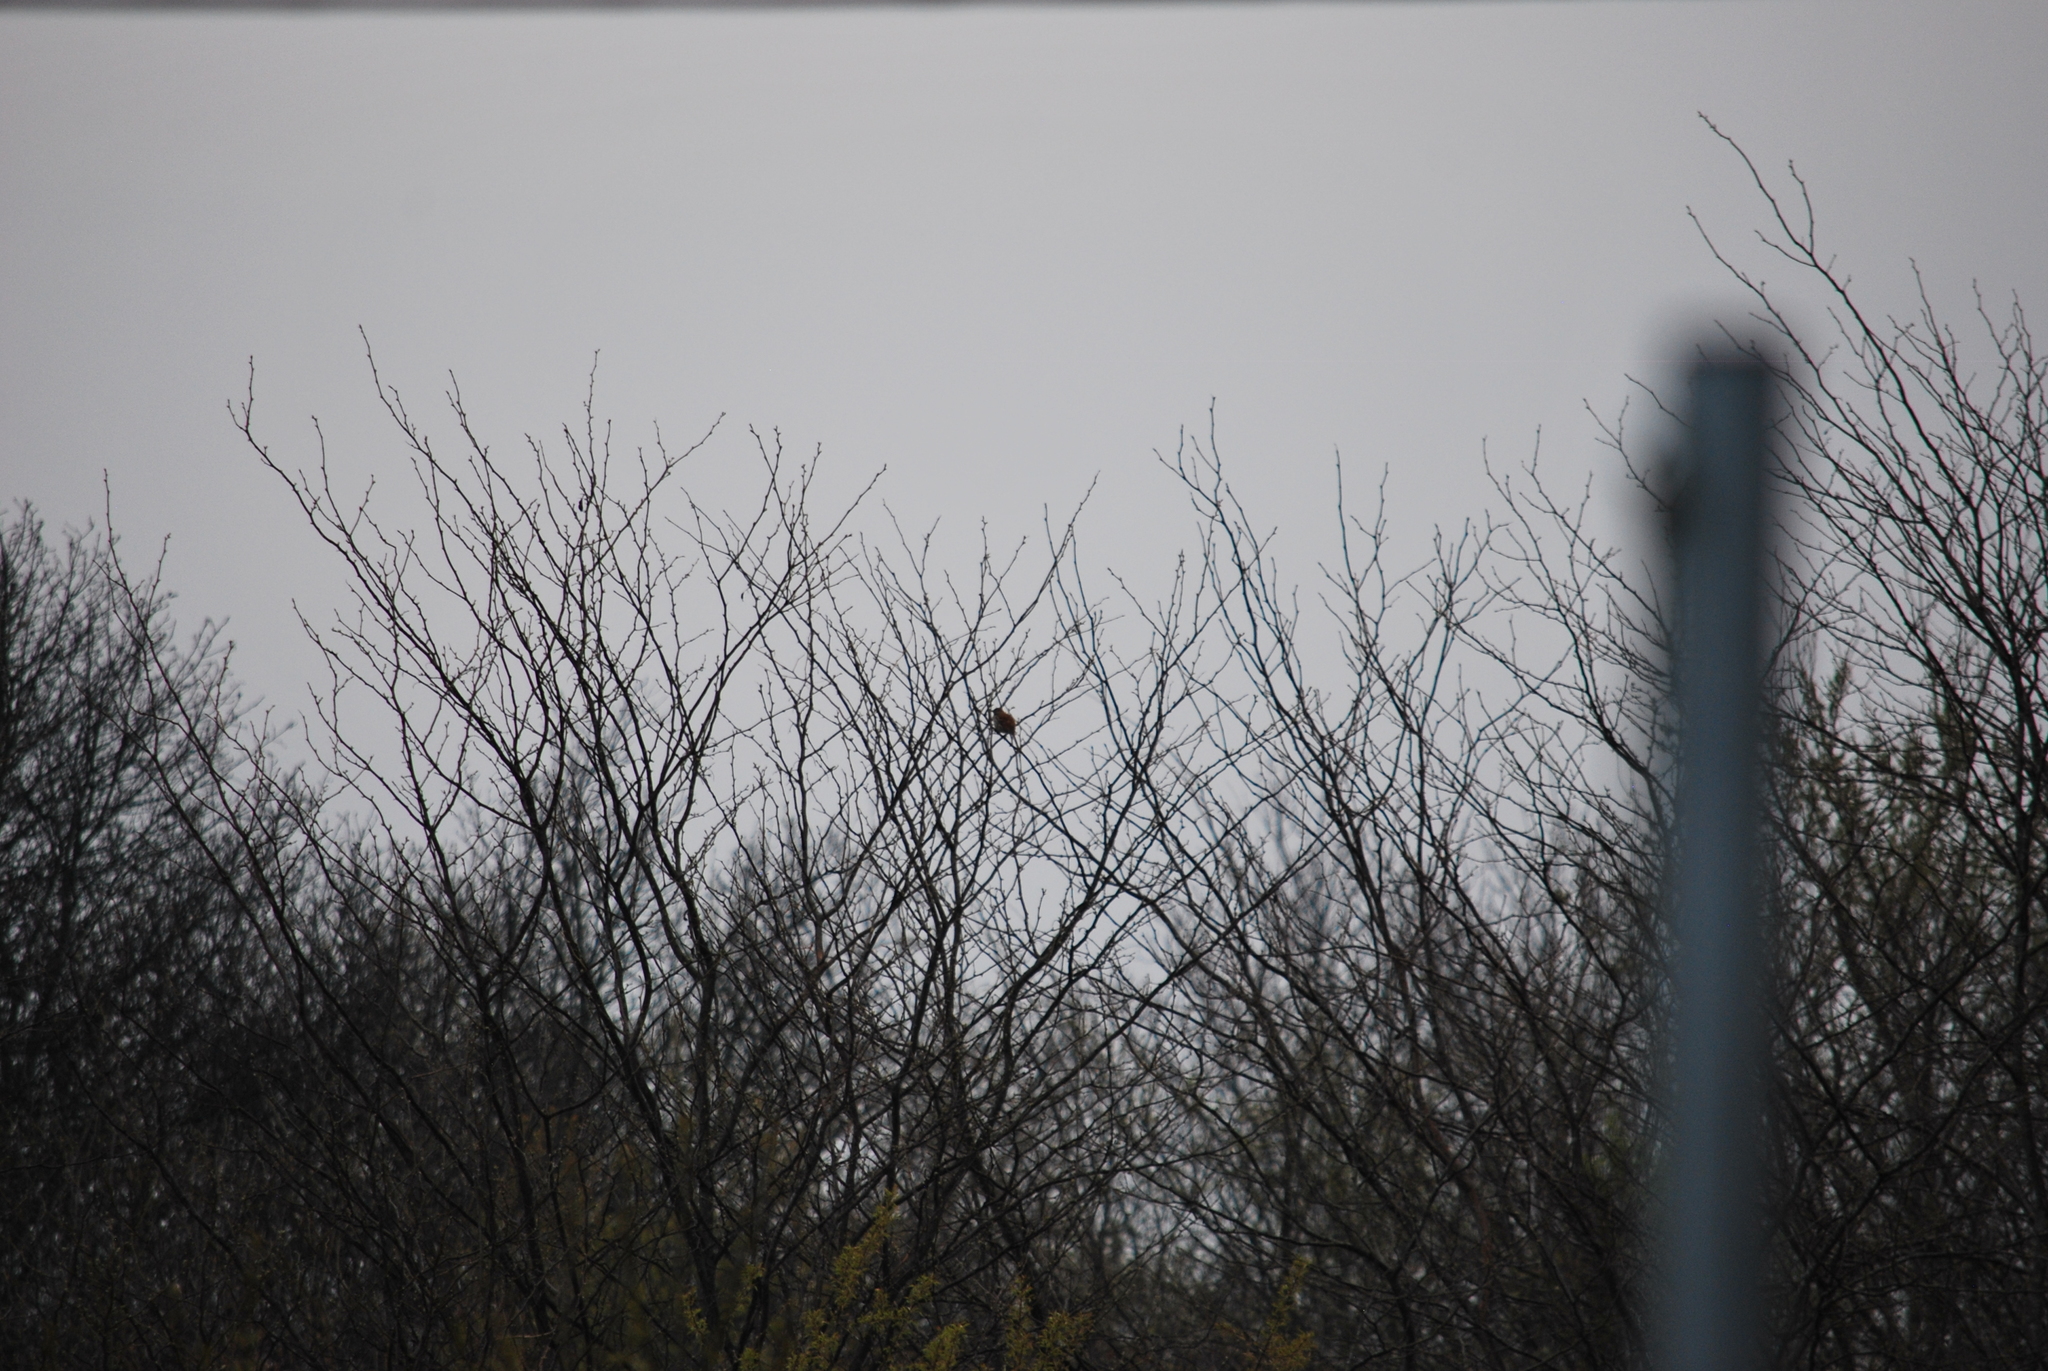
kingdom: Animalia
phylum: Chordata
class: Aves
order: Passeriformes
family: Mimidae
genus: Toxostoma
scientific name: Toxostoma rufum
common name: Brown thrasher
